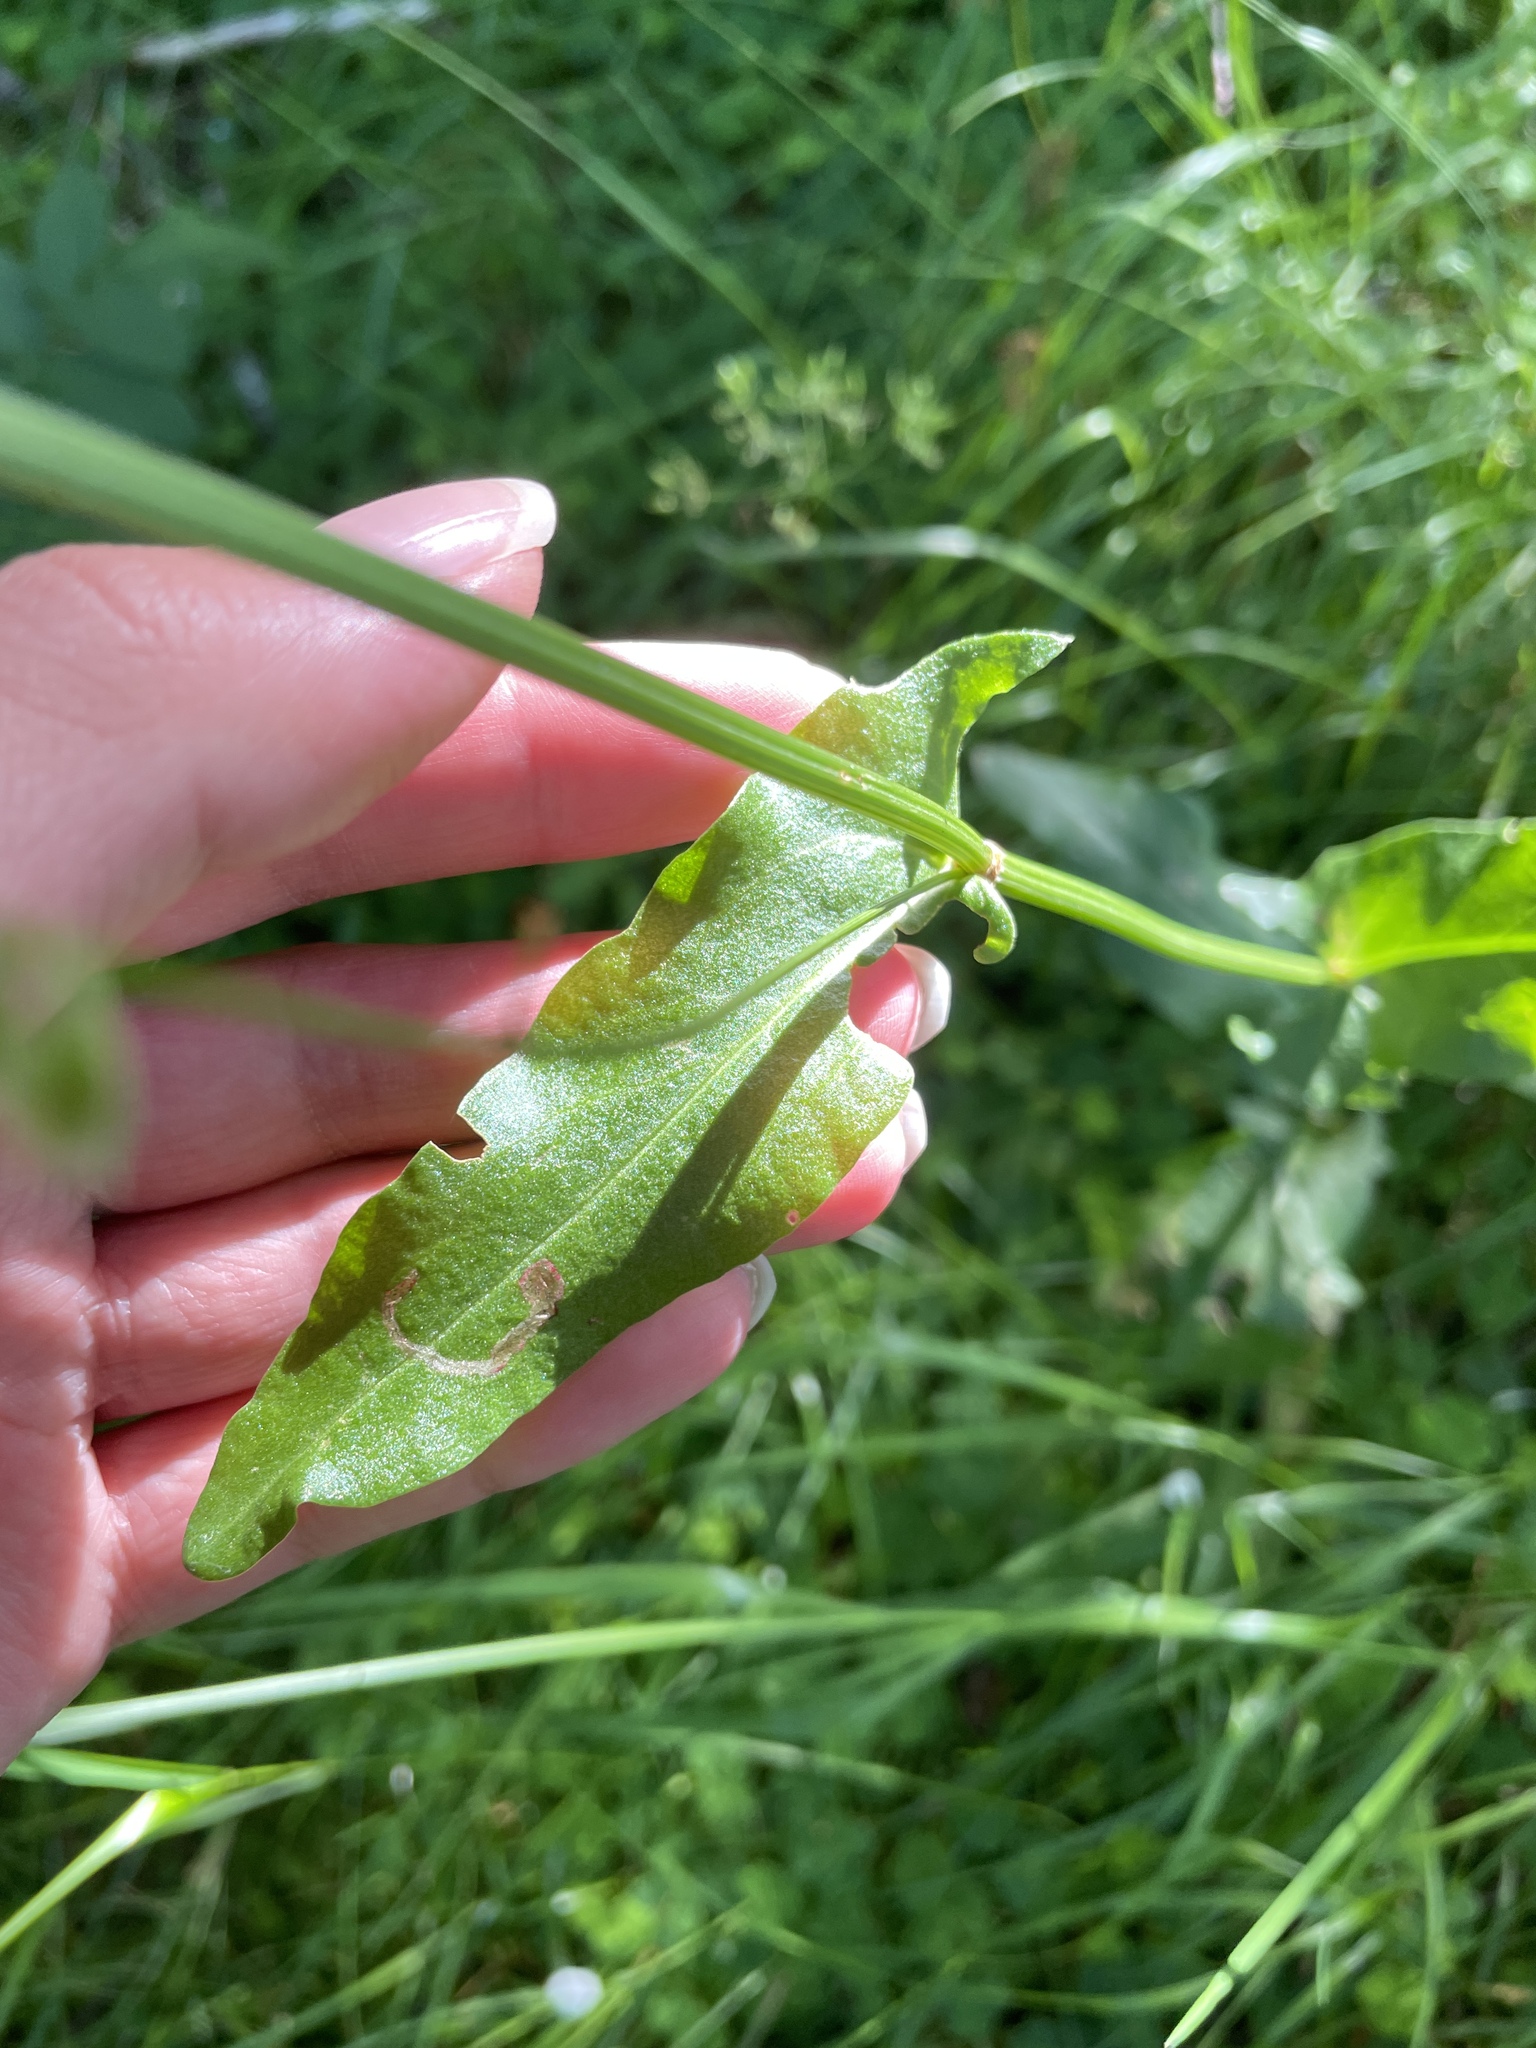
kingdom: Plantae
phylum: Tracheophyta
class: Magnoliopsida
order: Caryophyllales
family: Polygonaceae
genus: Rumex
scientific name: Rumex acetosa
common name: Garden sorrel
